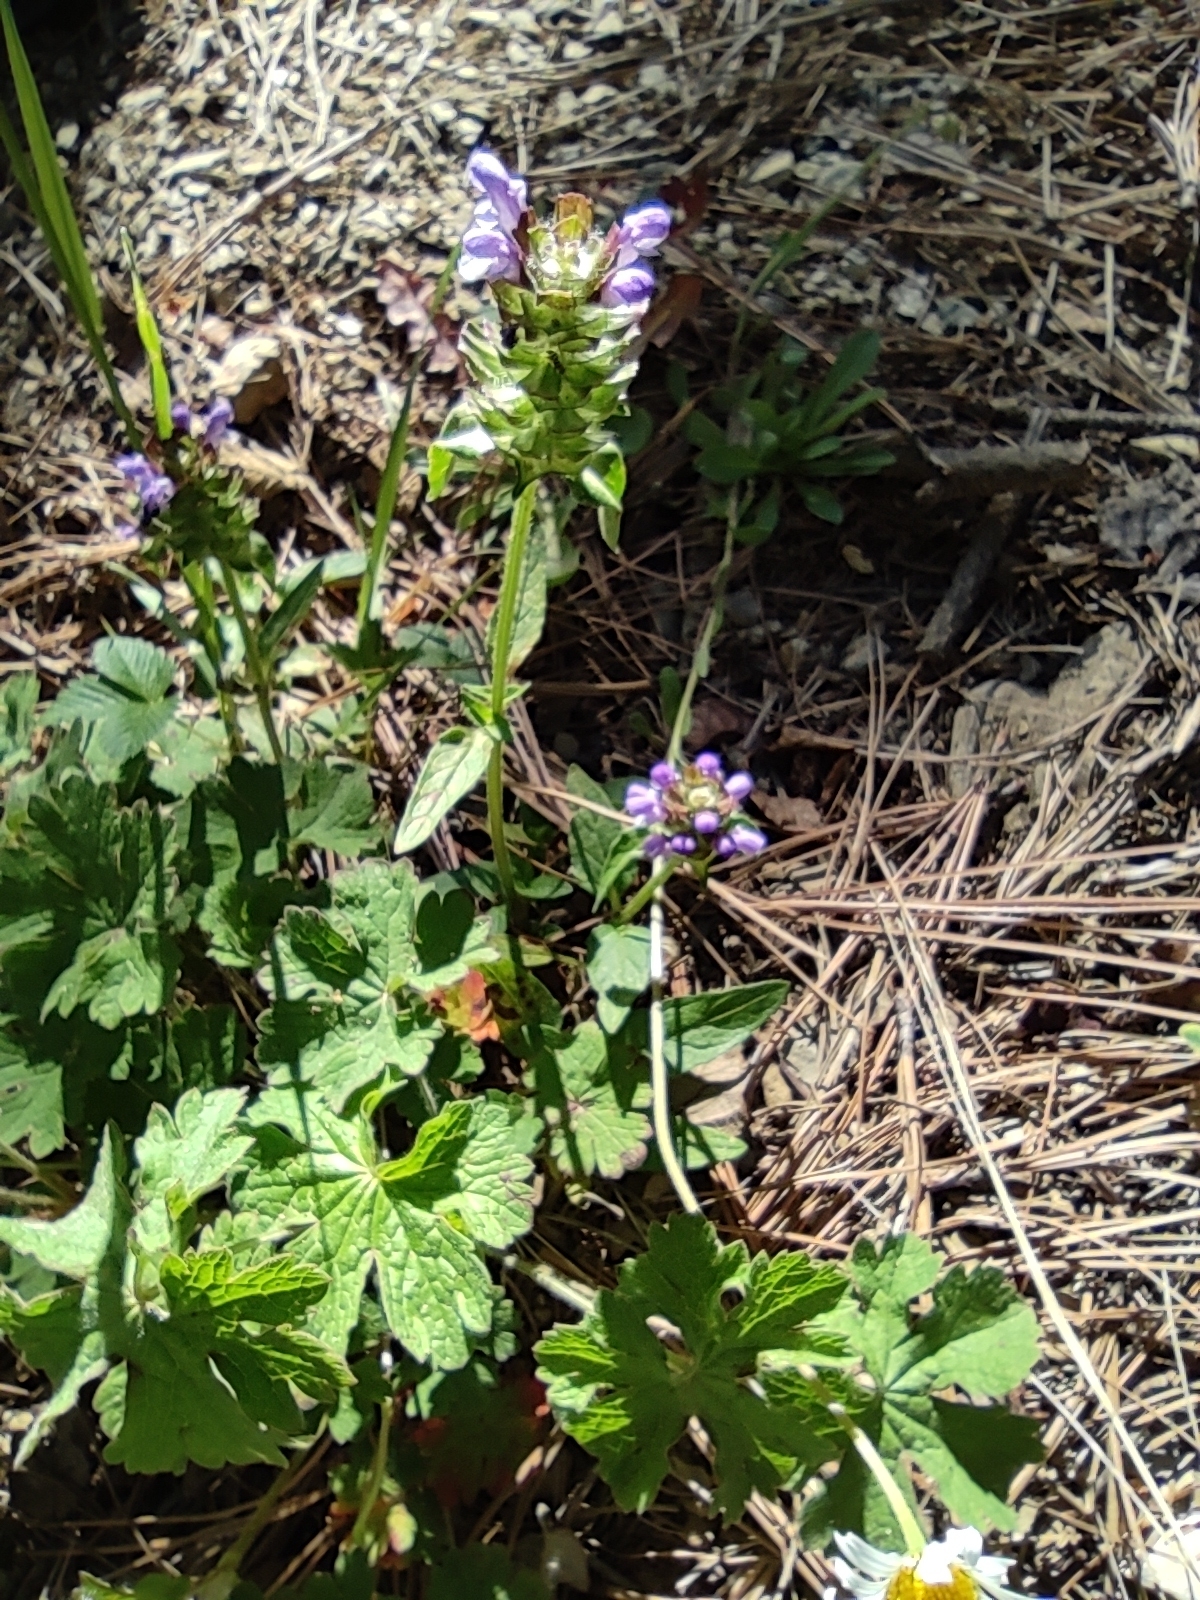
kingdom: Plantae
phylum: Tracheophyta
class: Magnoliopsida
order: Lamiales
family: Lamiaceae
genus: Prunella
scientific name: Prunella vulgaris
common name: Heal-all
